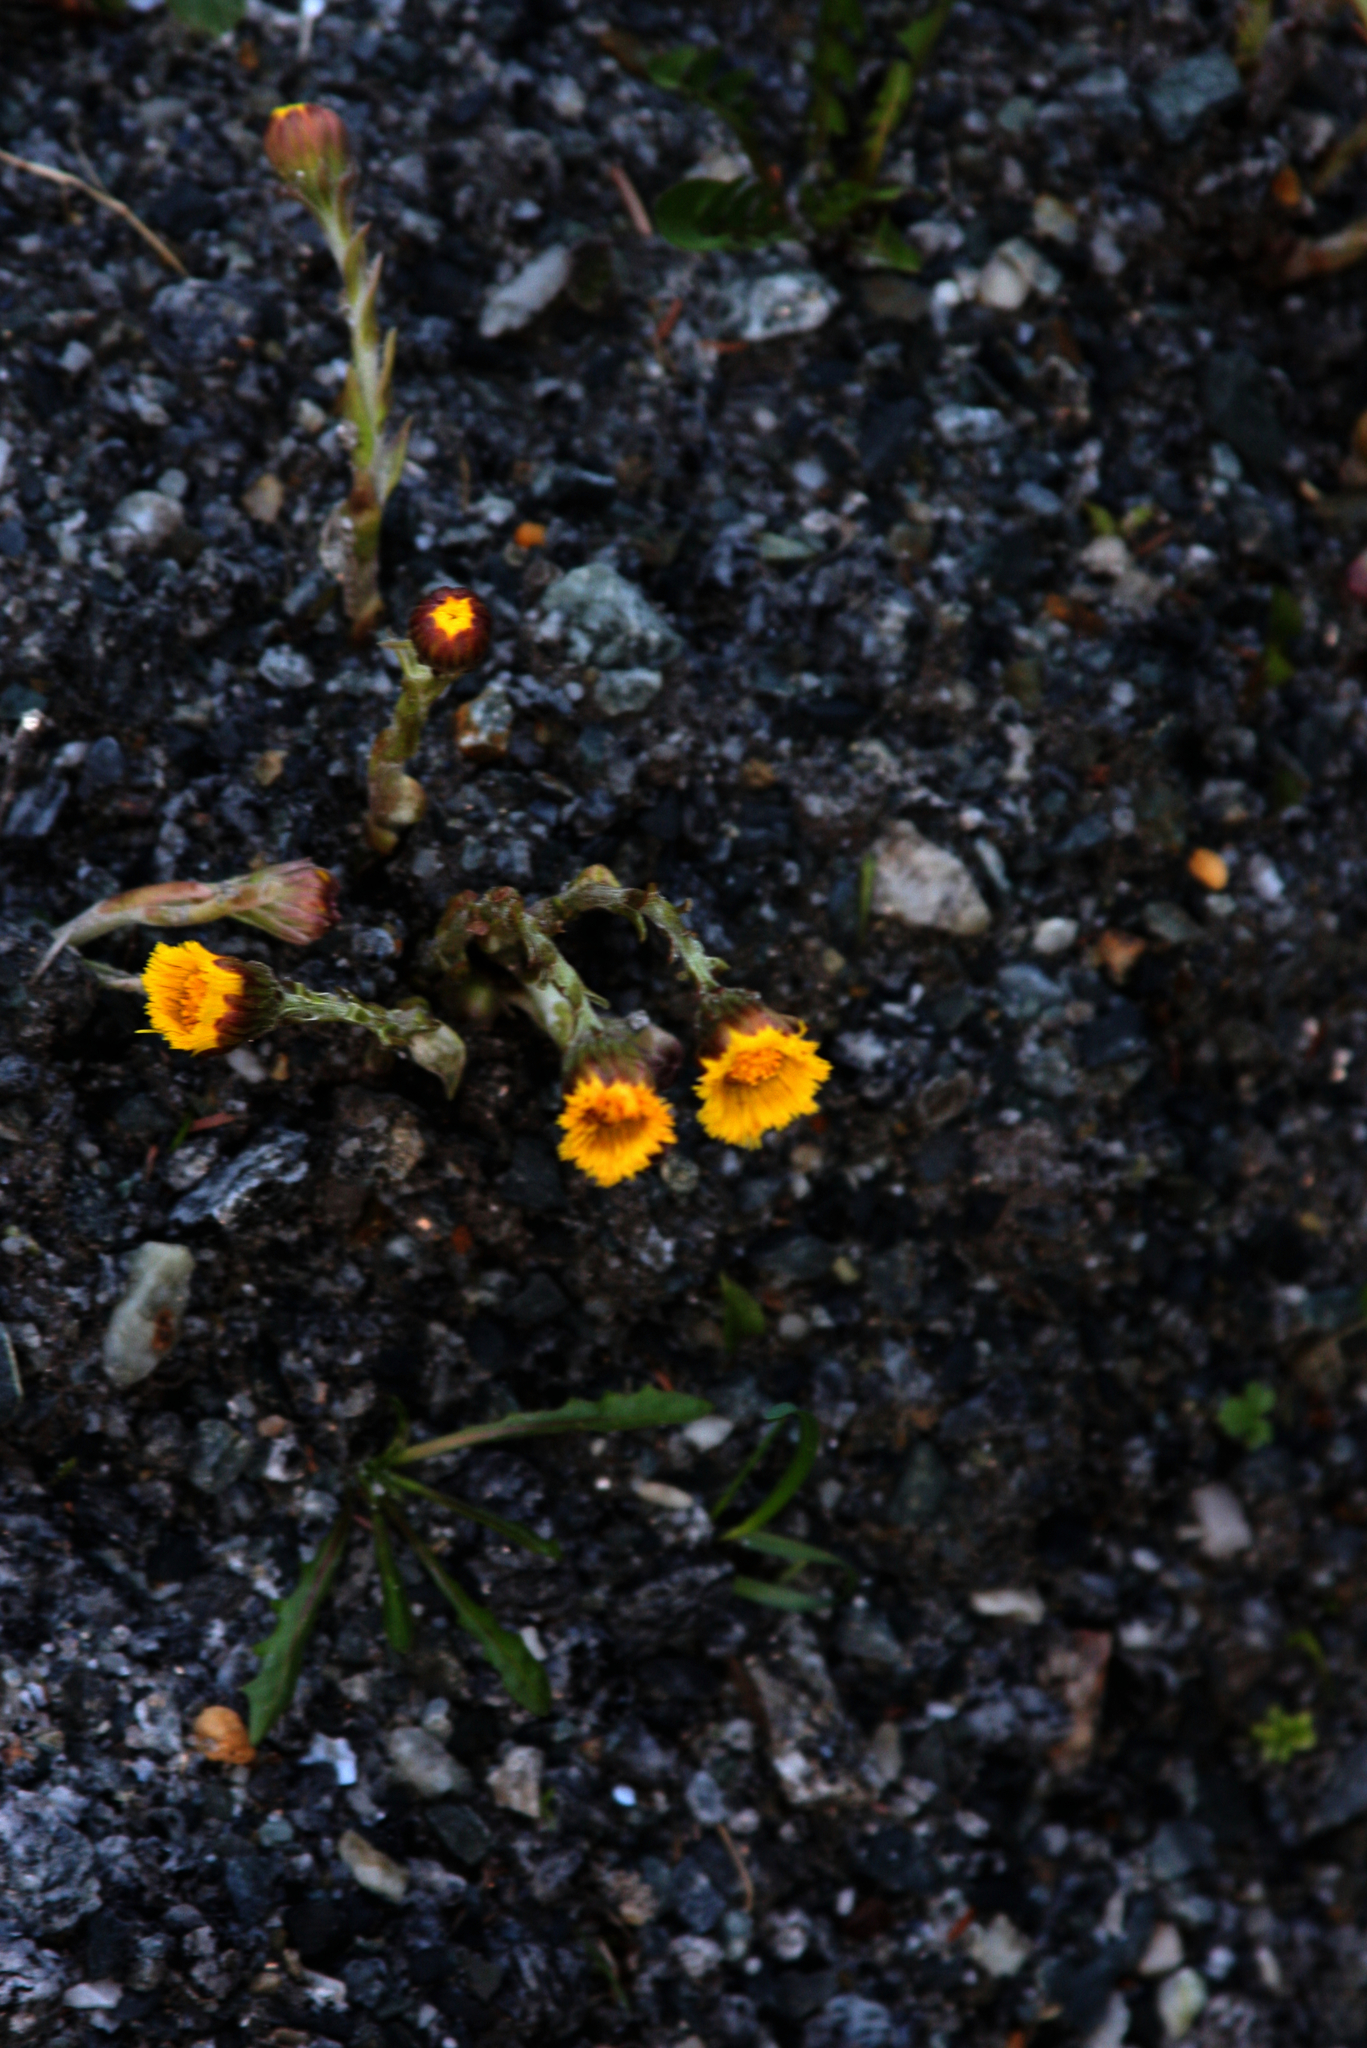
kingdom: Plantae
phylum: Tracheophyta
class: Magnoliopsida
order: Asterales
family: Asteraceae
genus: Tussilago
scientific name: Tussilago farfara
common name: Coltsfoot
